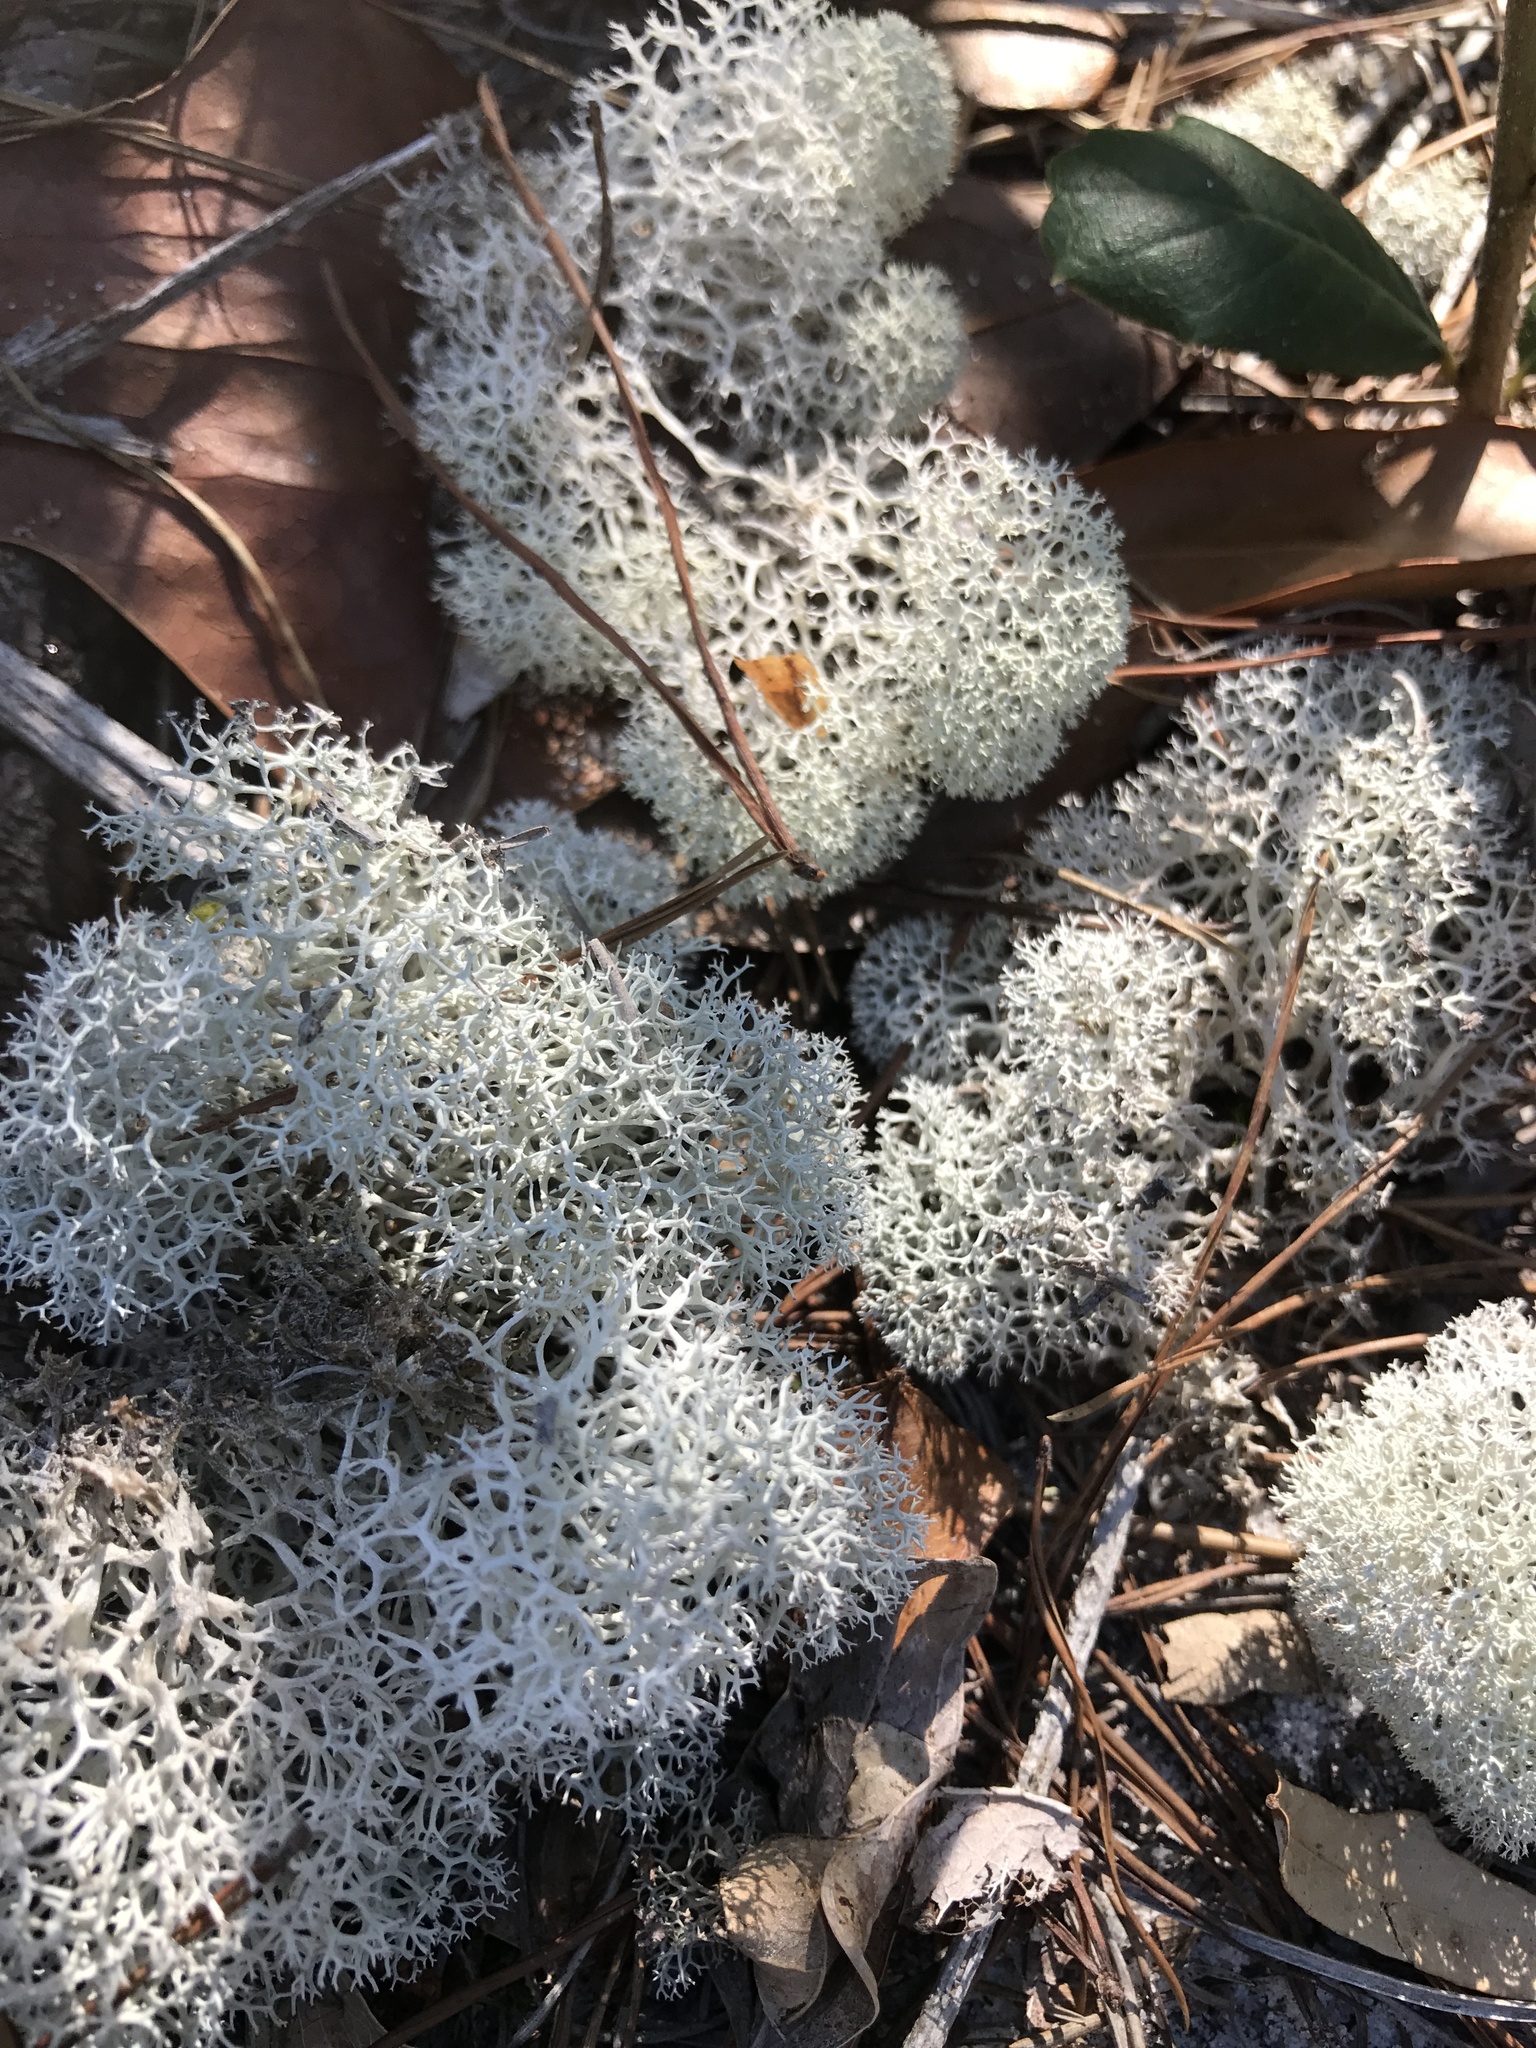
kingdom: Fungi
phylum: Ascomycota
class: Lecanoromycetes
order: Lecanorales
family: Cladoniaceae
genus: Cladonia
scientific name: Cladonia evansii
